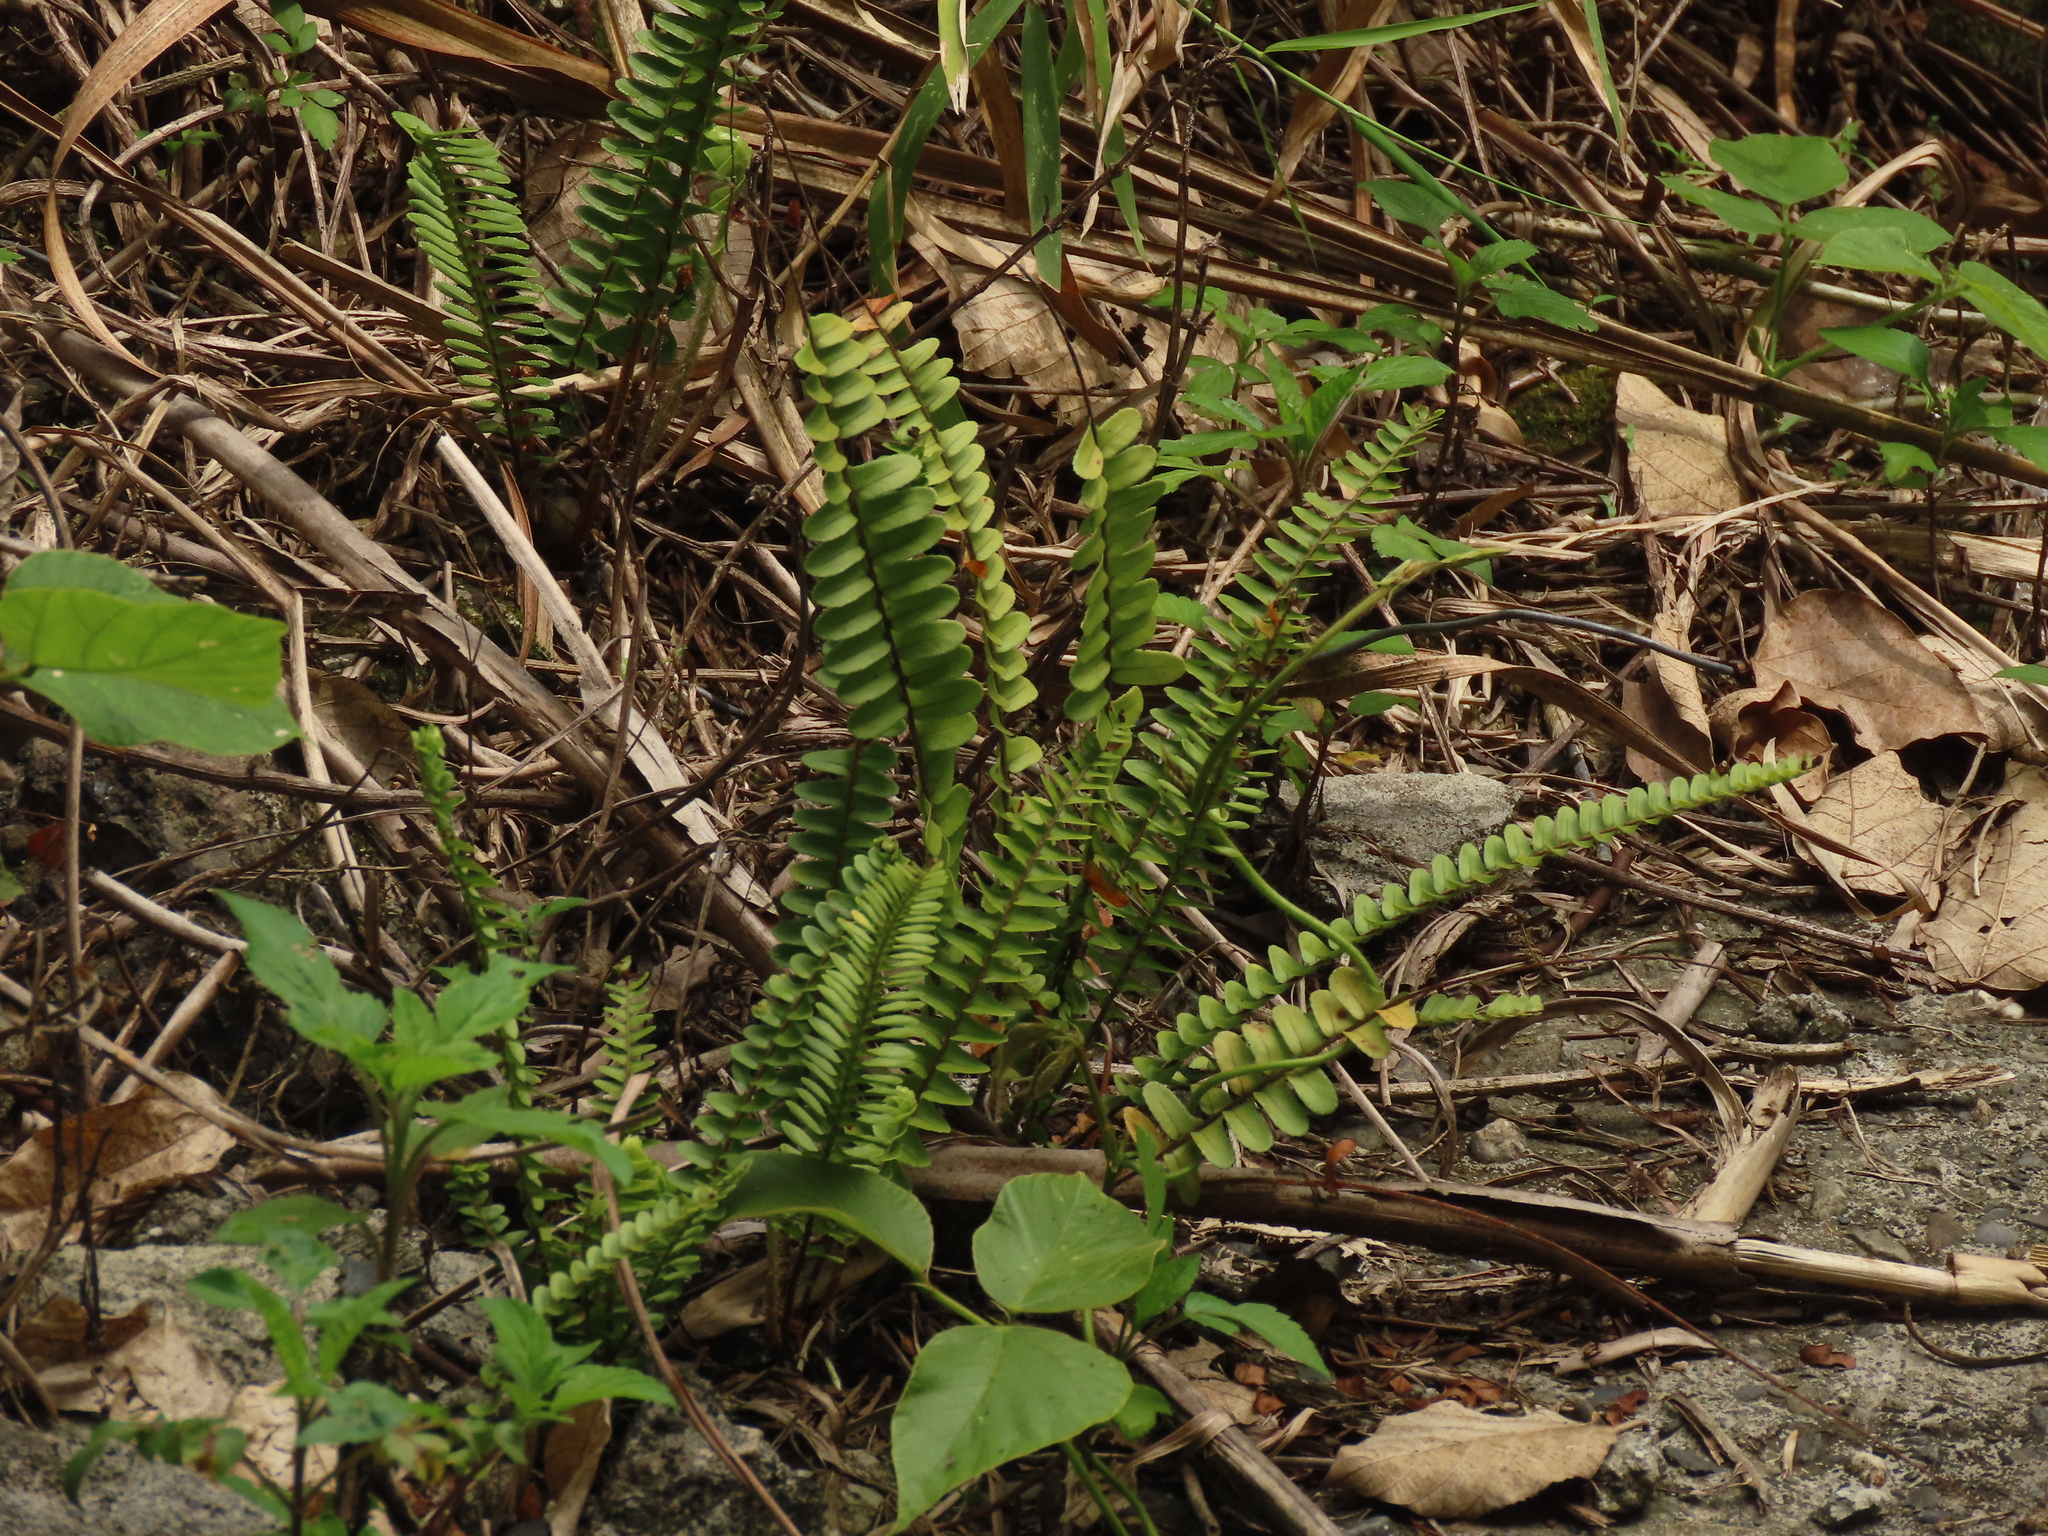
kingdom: Plantae
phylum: Tracheophyta
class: Polypodiopsida
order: Polypodiales
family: Nephrolepidaceae
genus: Nephrolepis
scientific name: Nephrolepis cordifolia
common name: Narrow swordfern
